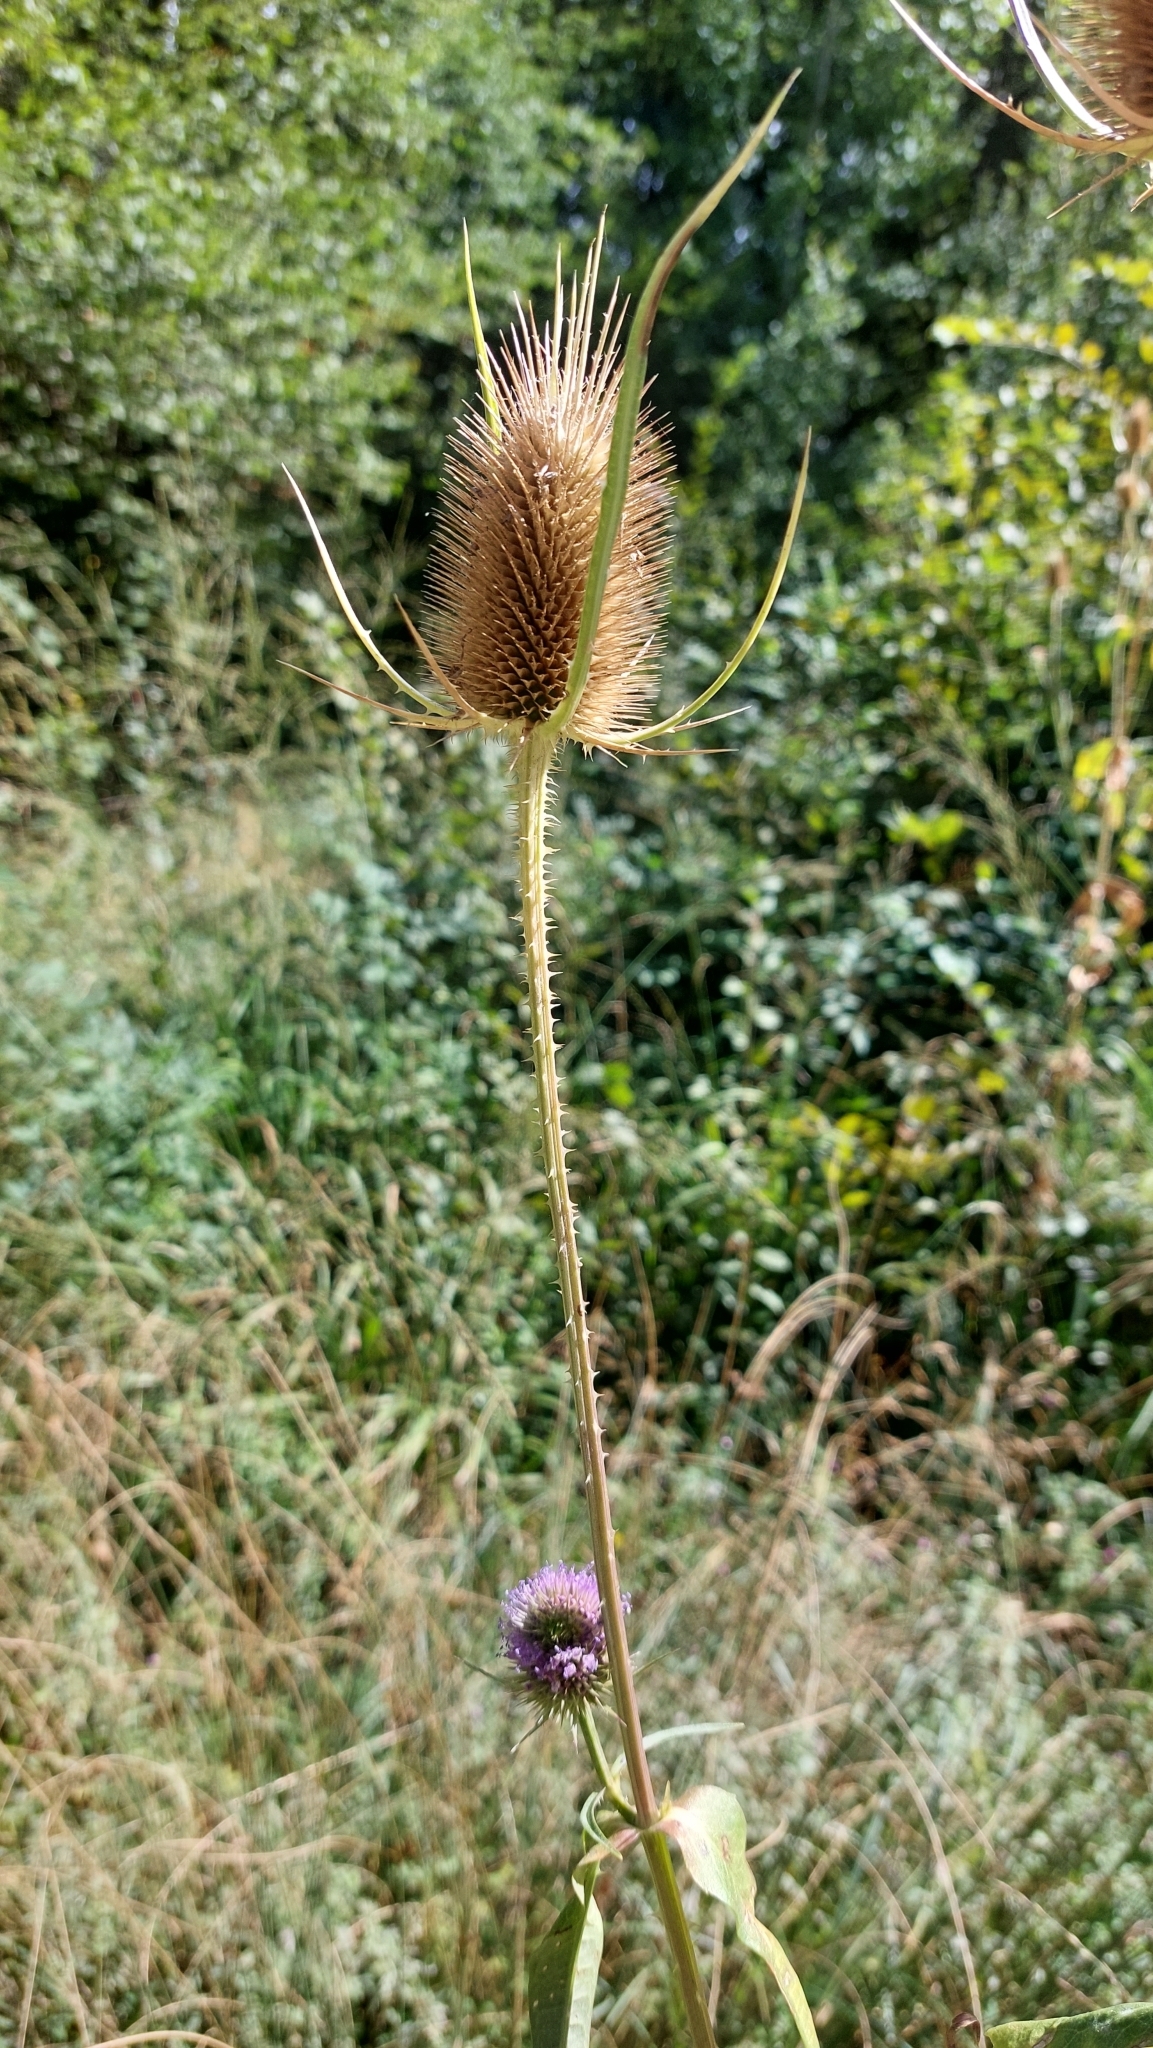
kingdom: Plantae
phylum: Tracheophyta
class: Magnoliopsida
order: Dipsacales
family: Caprifoliaceae
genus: Dipsacus
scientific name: Dipsacus fullonum
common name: Teasel
